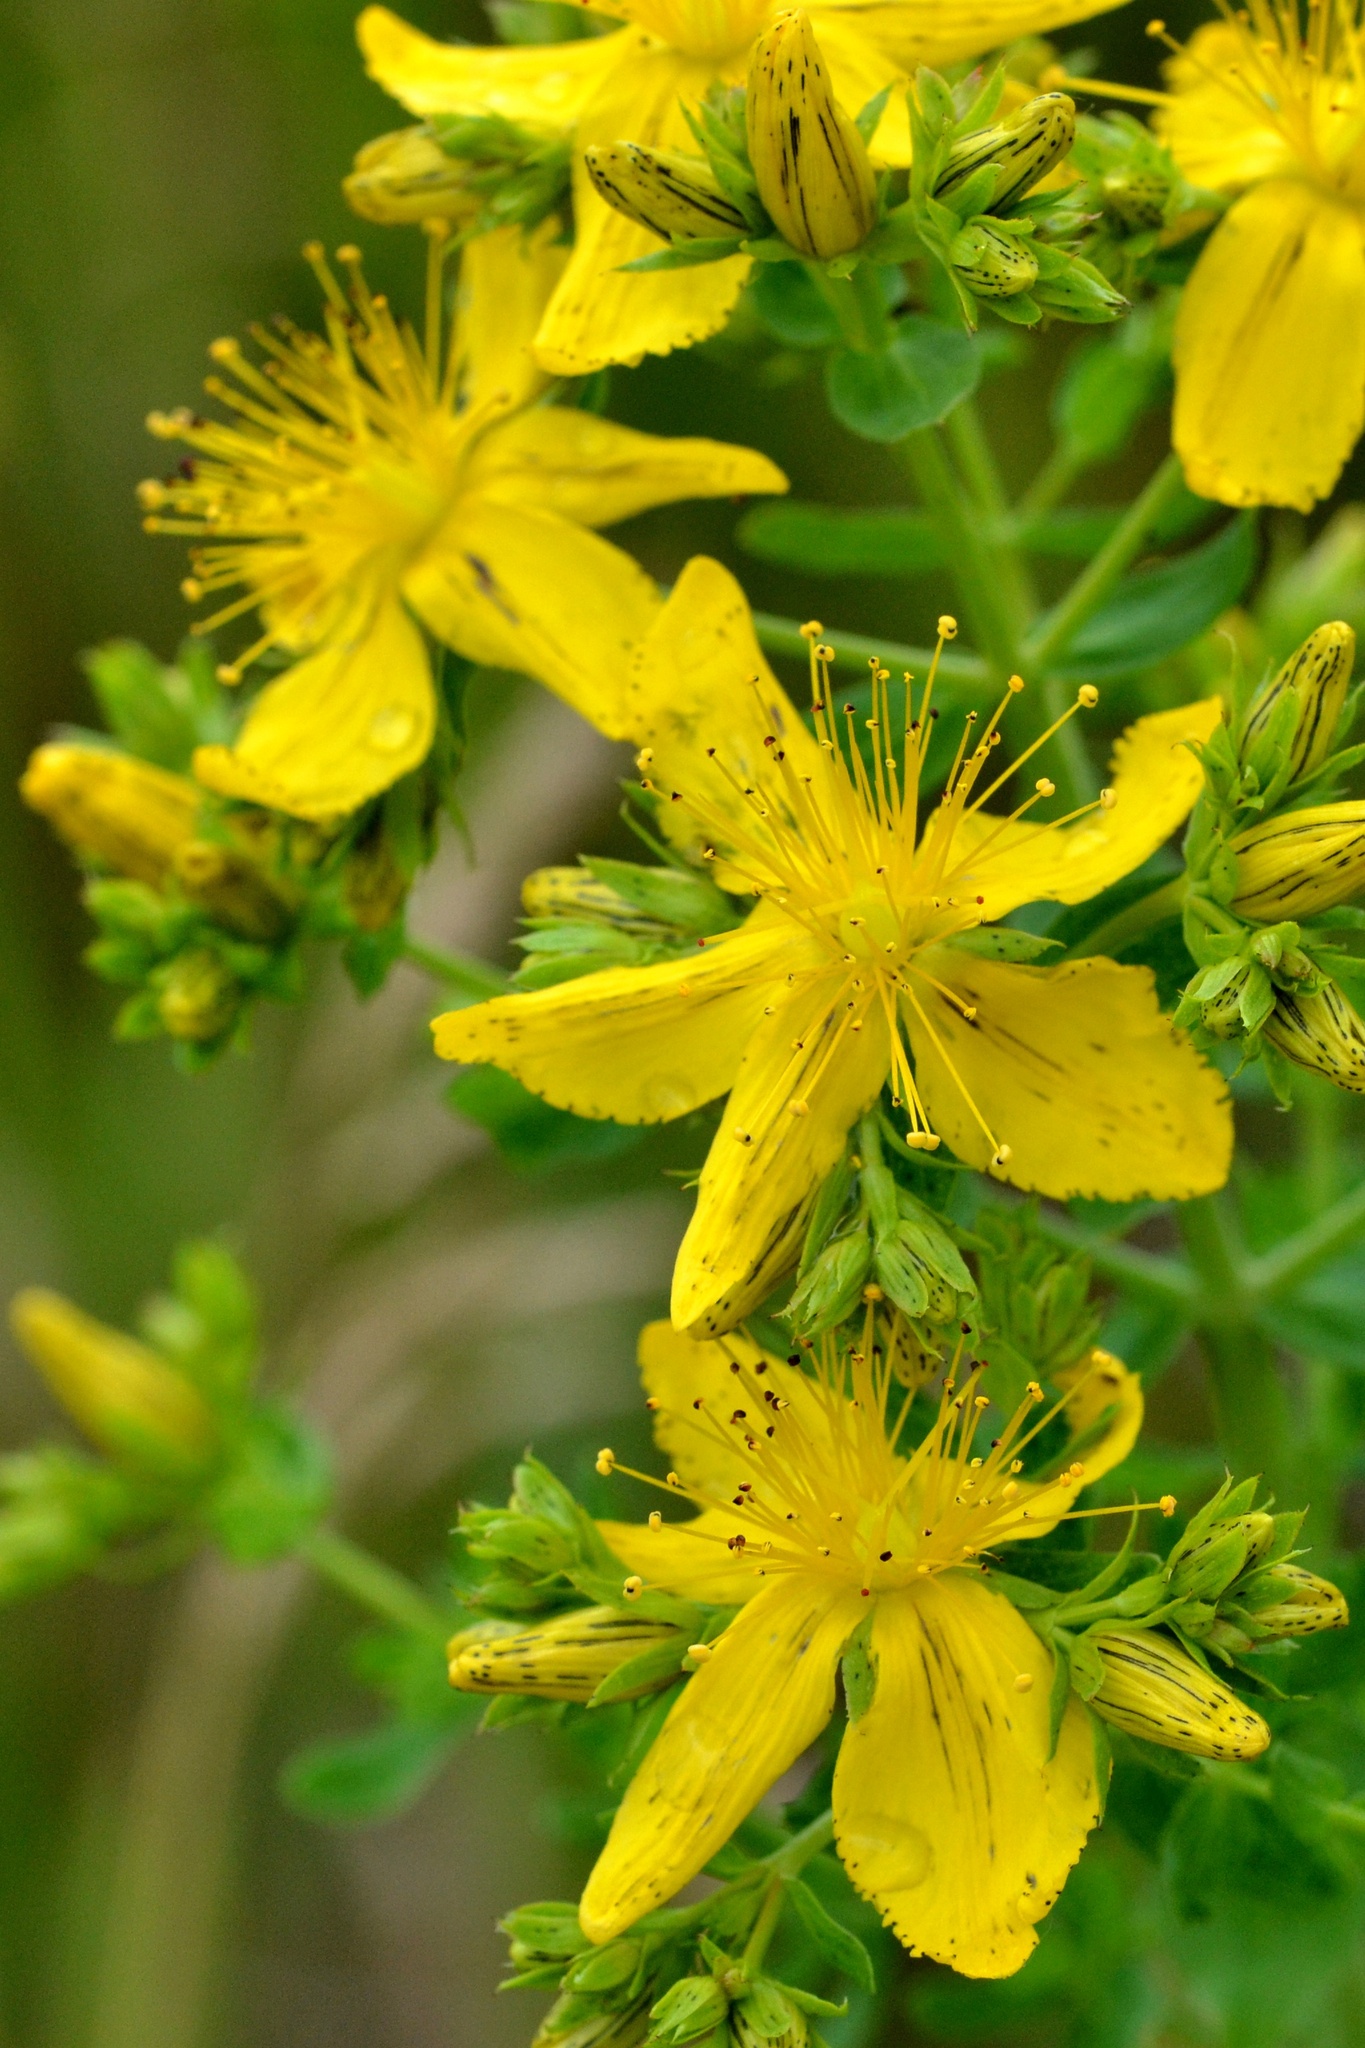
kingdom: Plantae
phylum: Tracheophyta
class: Magnoliopsida
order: Malpighiales
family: Hypericaceae
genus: Hypericum
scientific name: Hypericum perforatum
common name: Common st. johnswort
